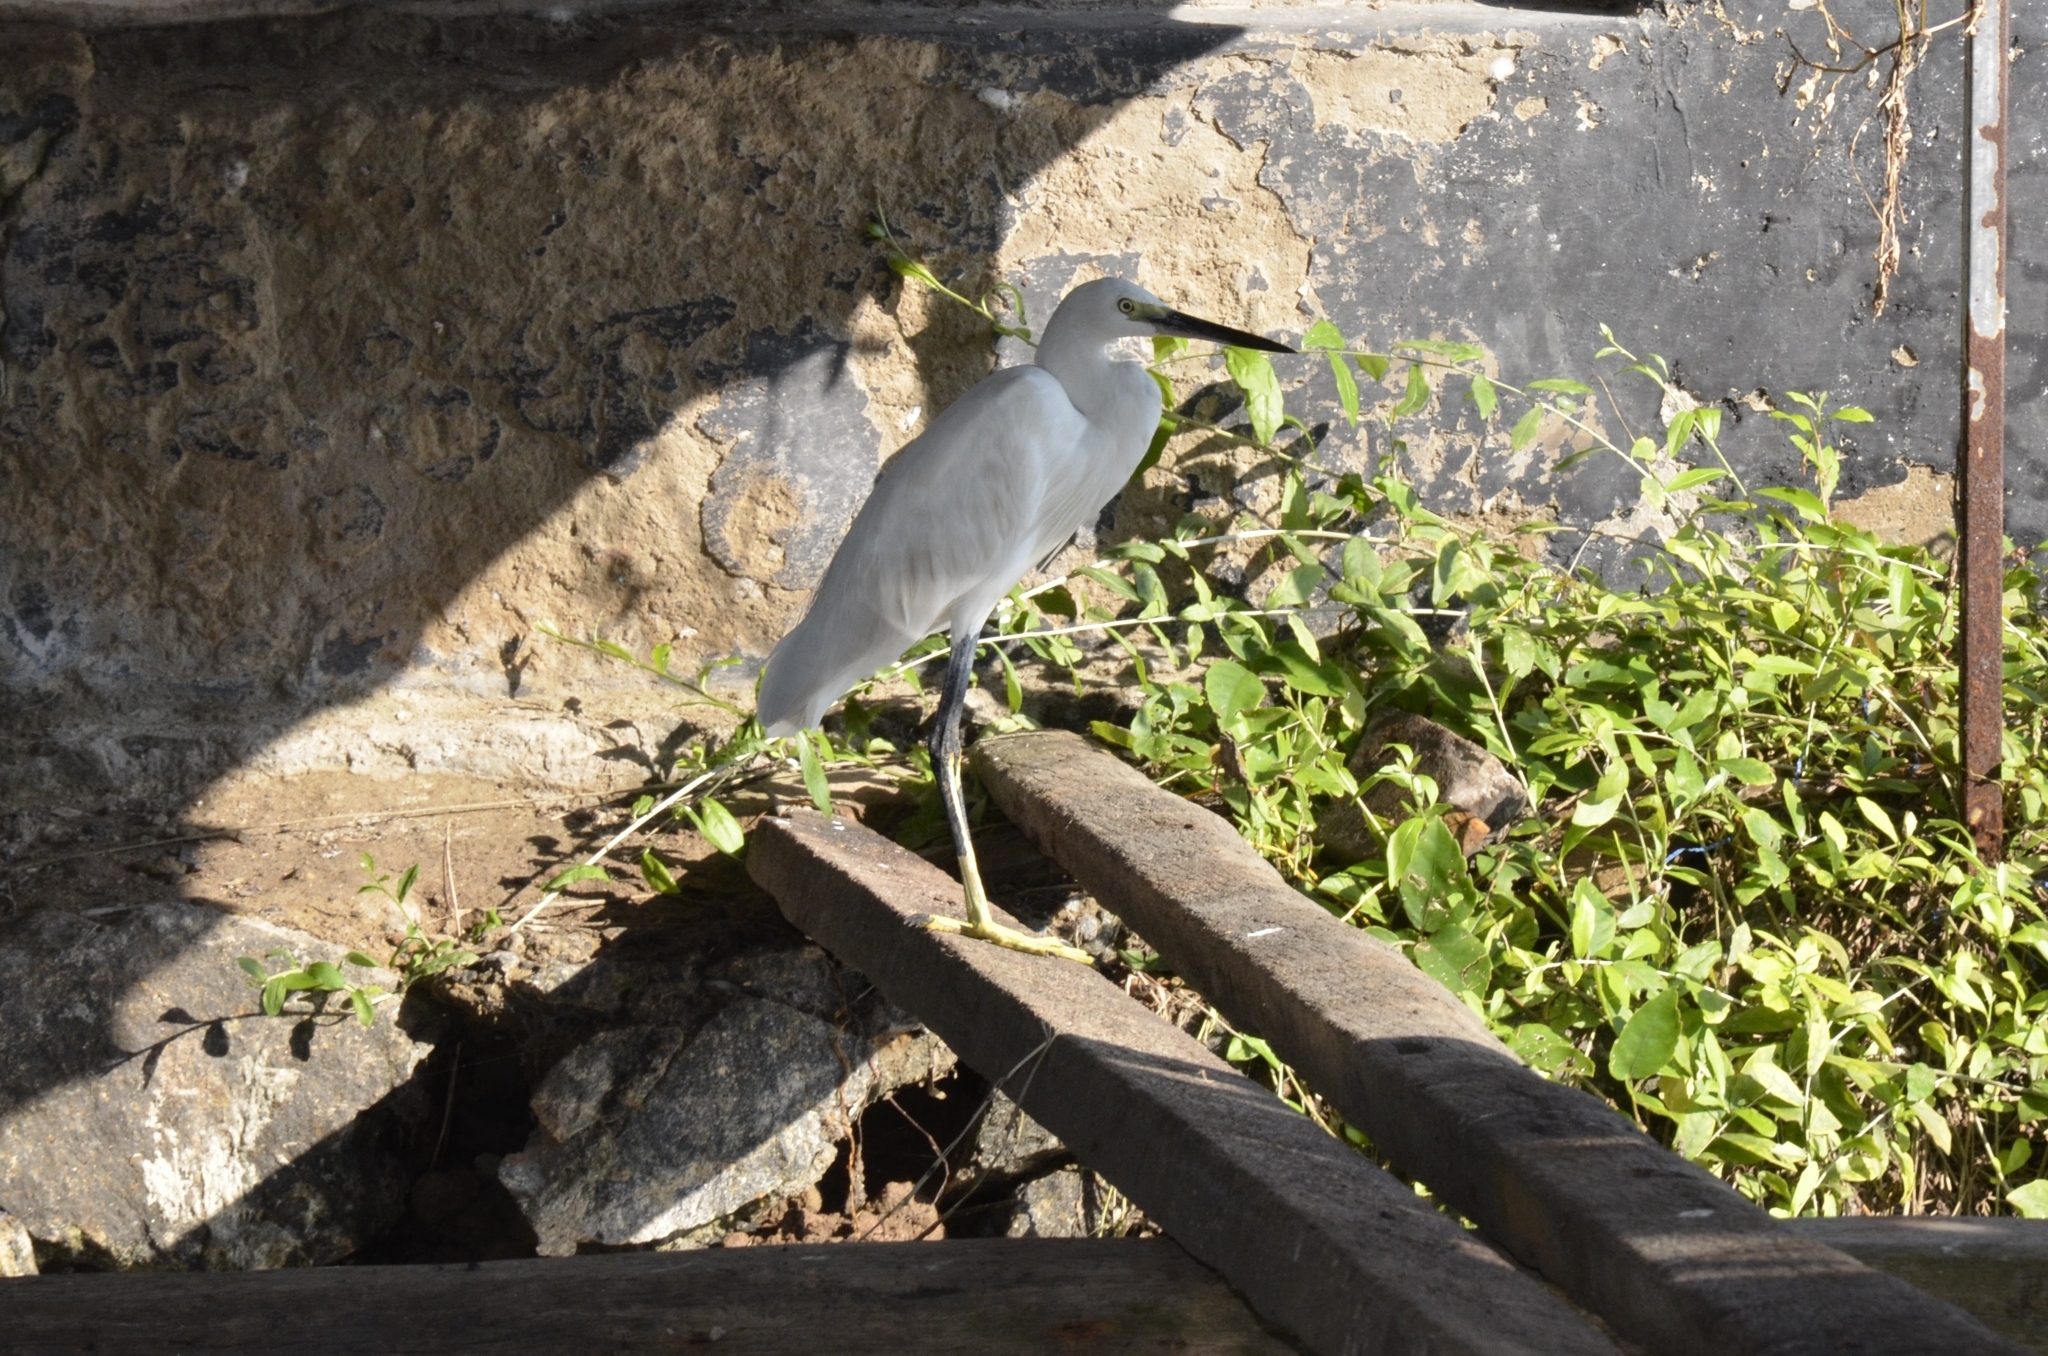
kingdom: Animalia
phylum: Chordata
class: Aves
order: Pelecaniformes
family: Ardeidae
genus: Egretta
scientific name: Egretta garzetta
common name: Little egret
